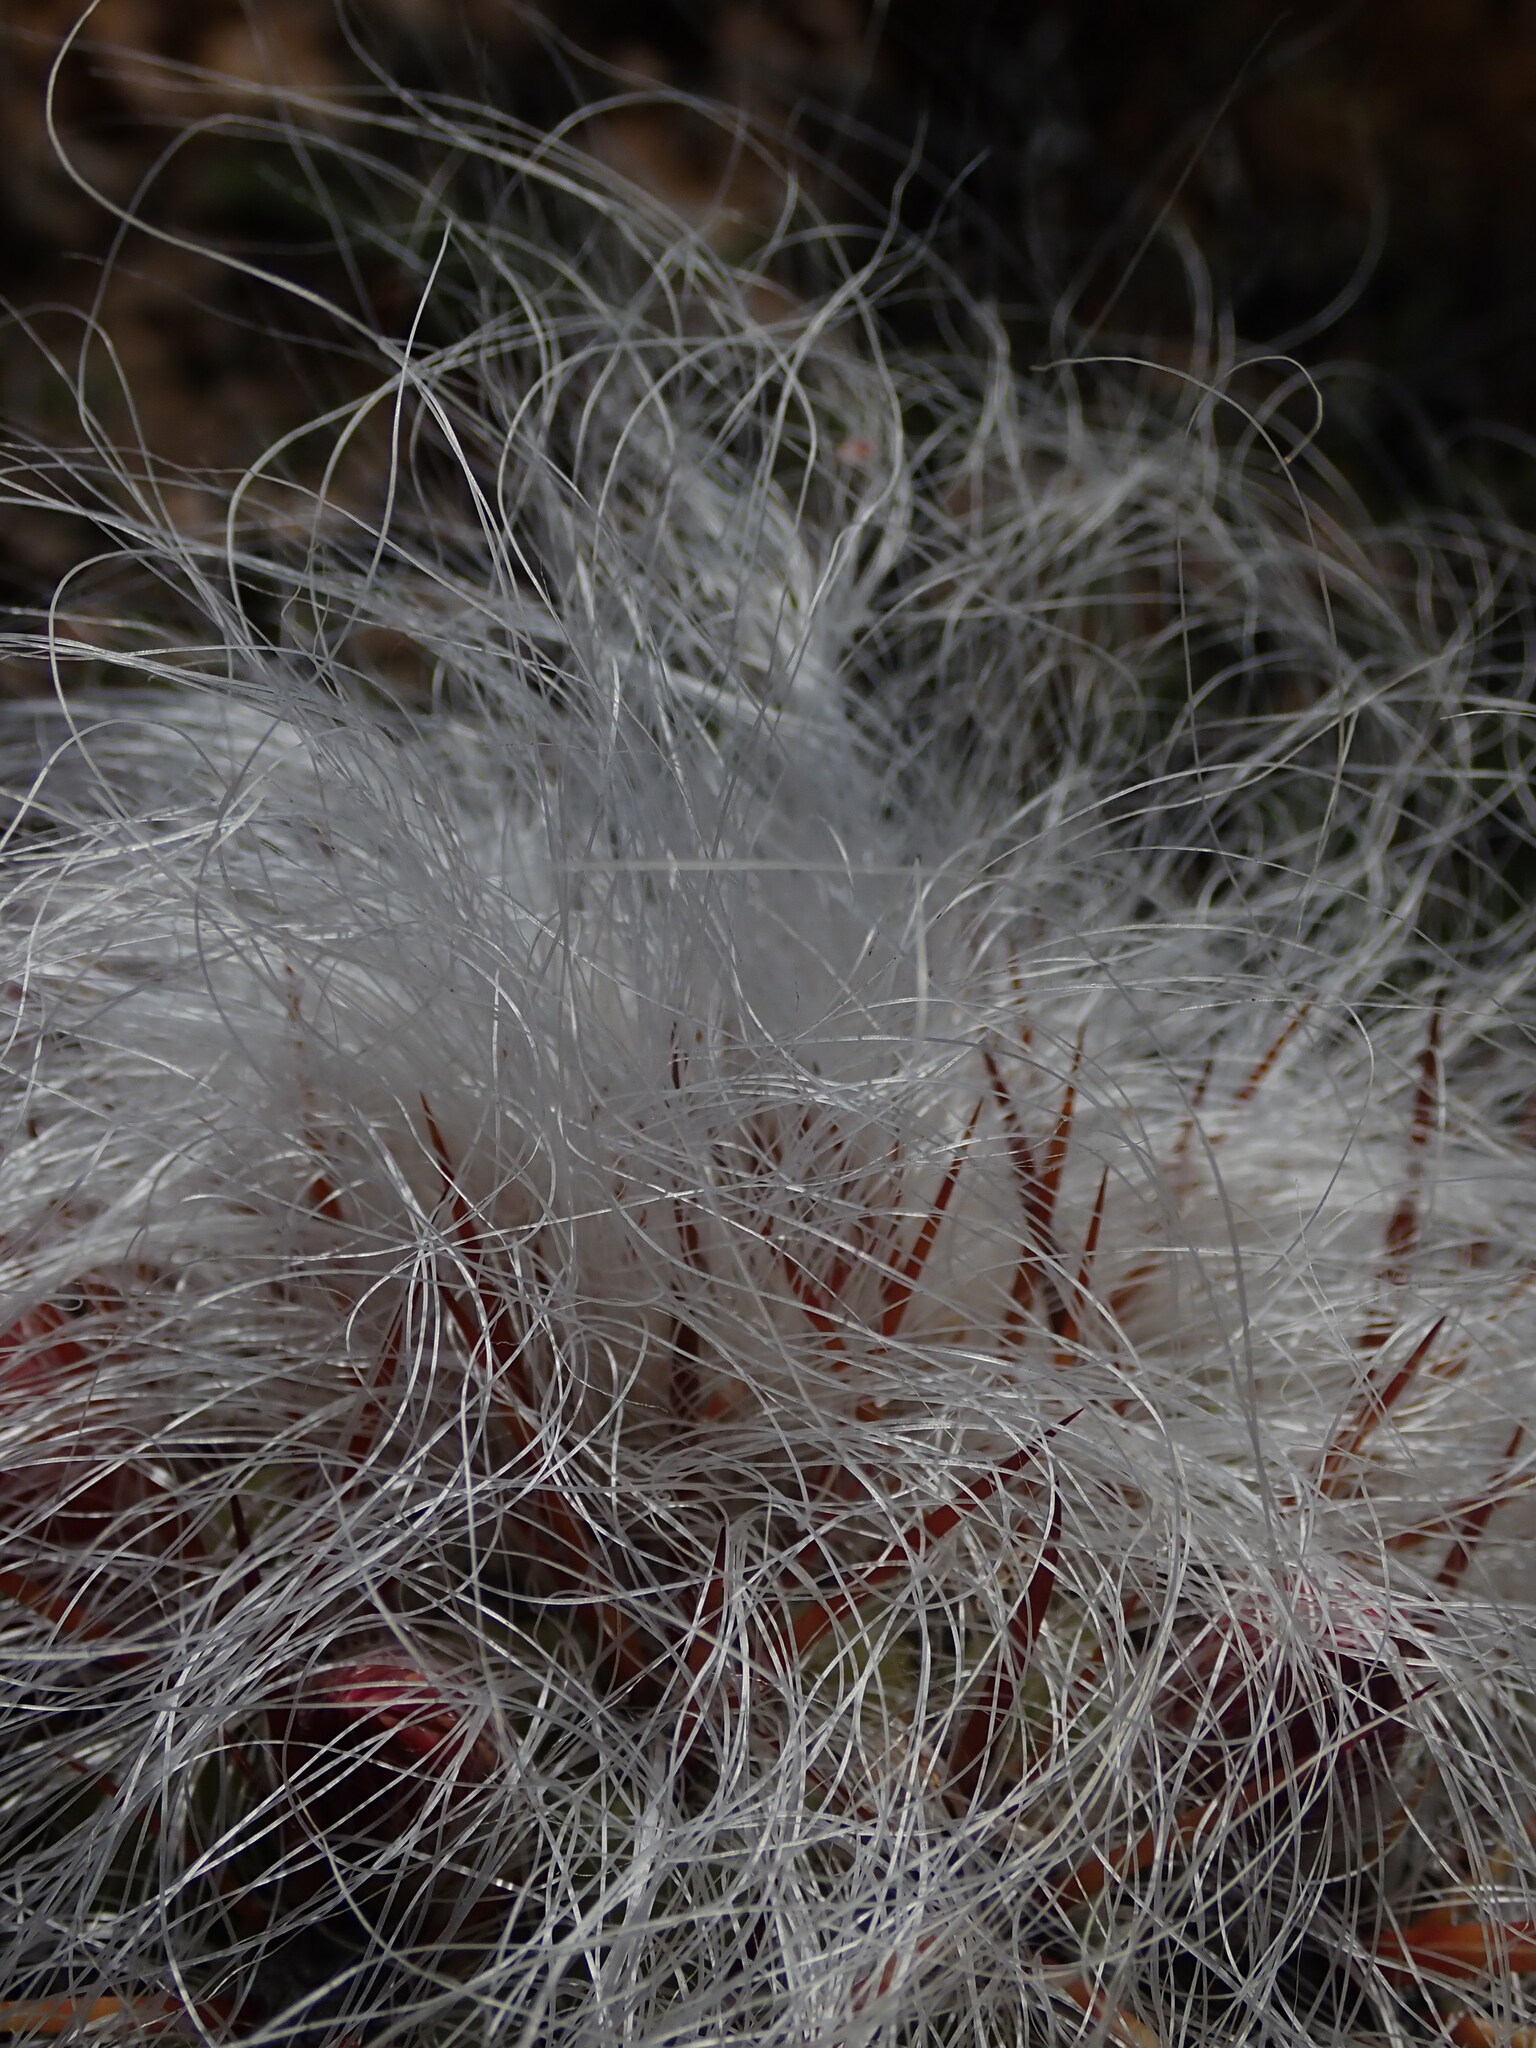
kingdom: Plantae
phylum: Tracheophyta
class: Magnoliopsida
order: Caryophyllales
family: Cactaceae
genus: Oreocereus
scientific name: Oreocereus celsianus
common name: Old-man-of-the-andes
